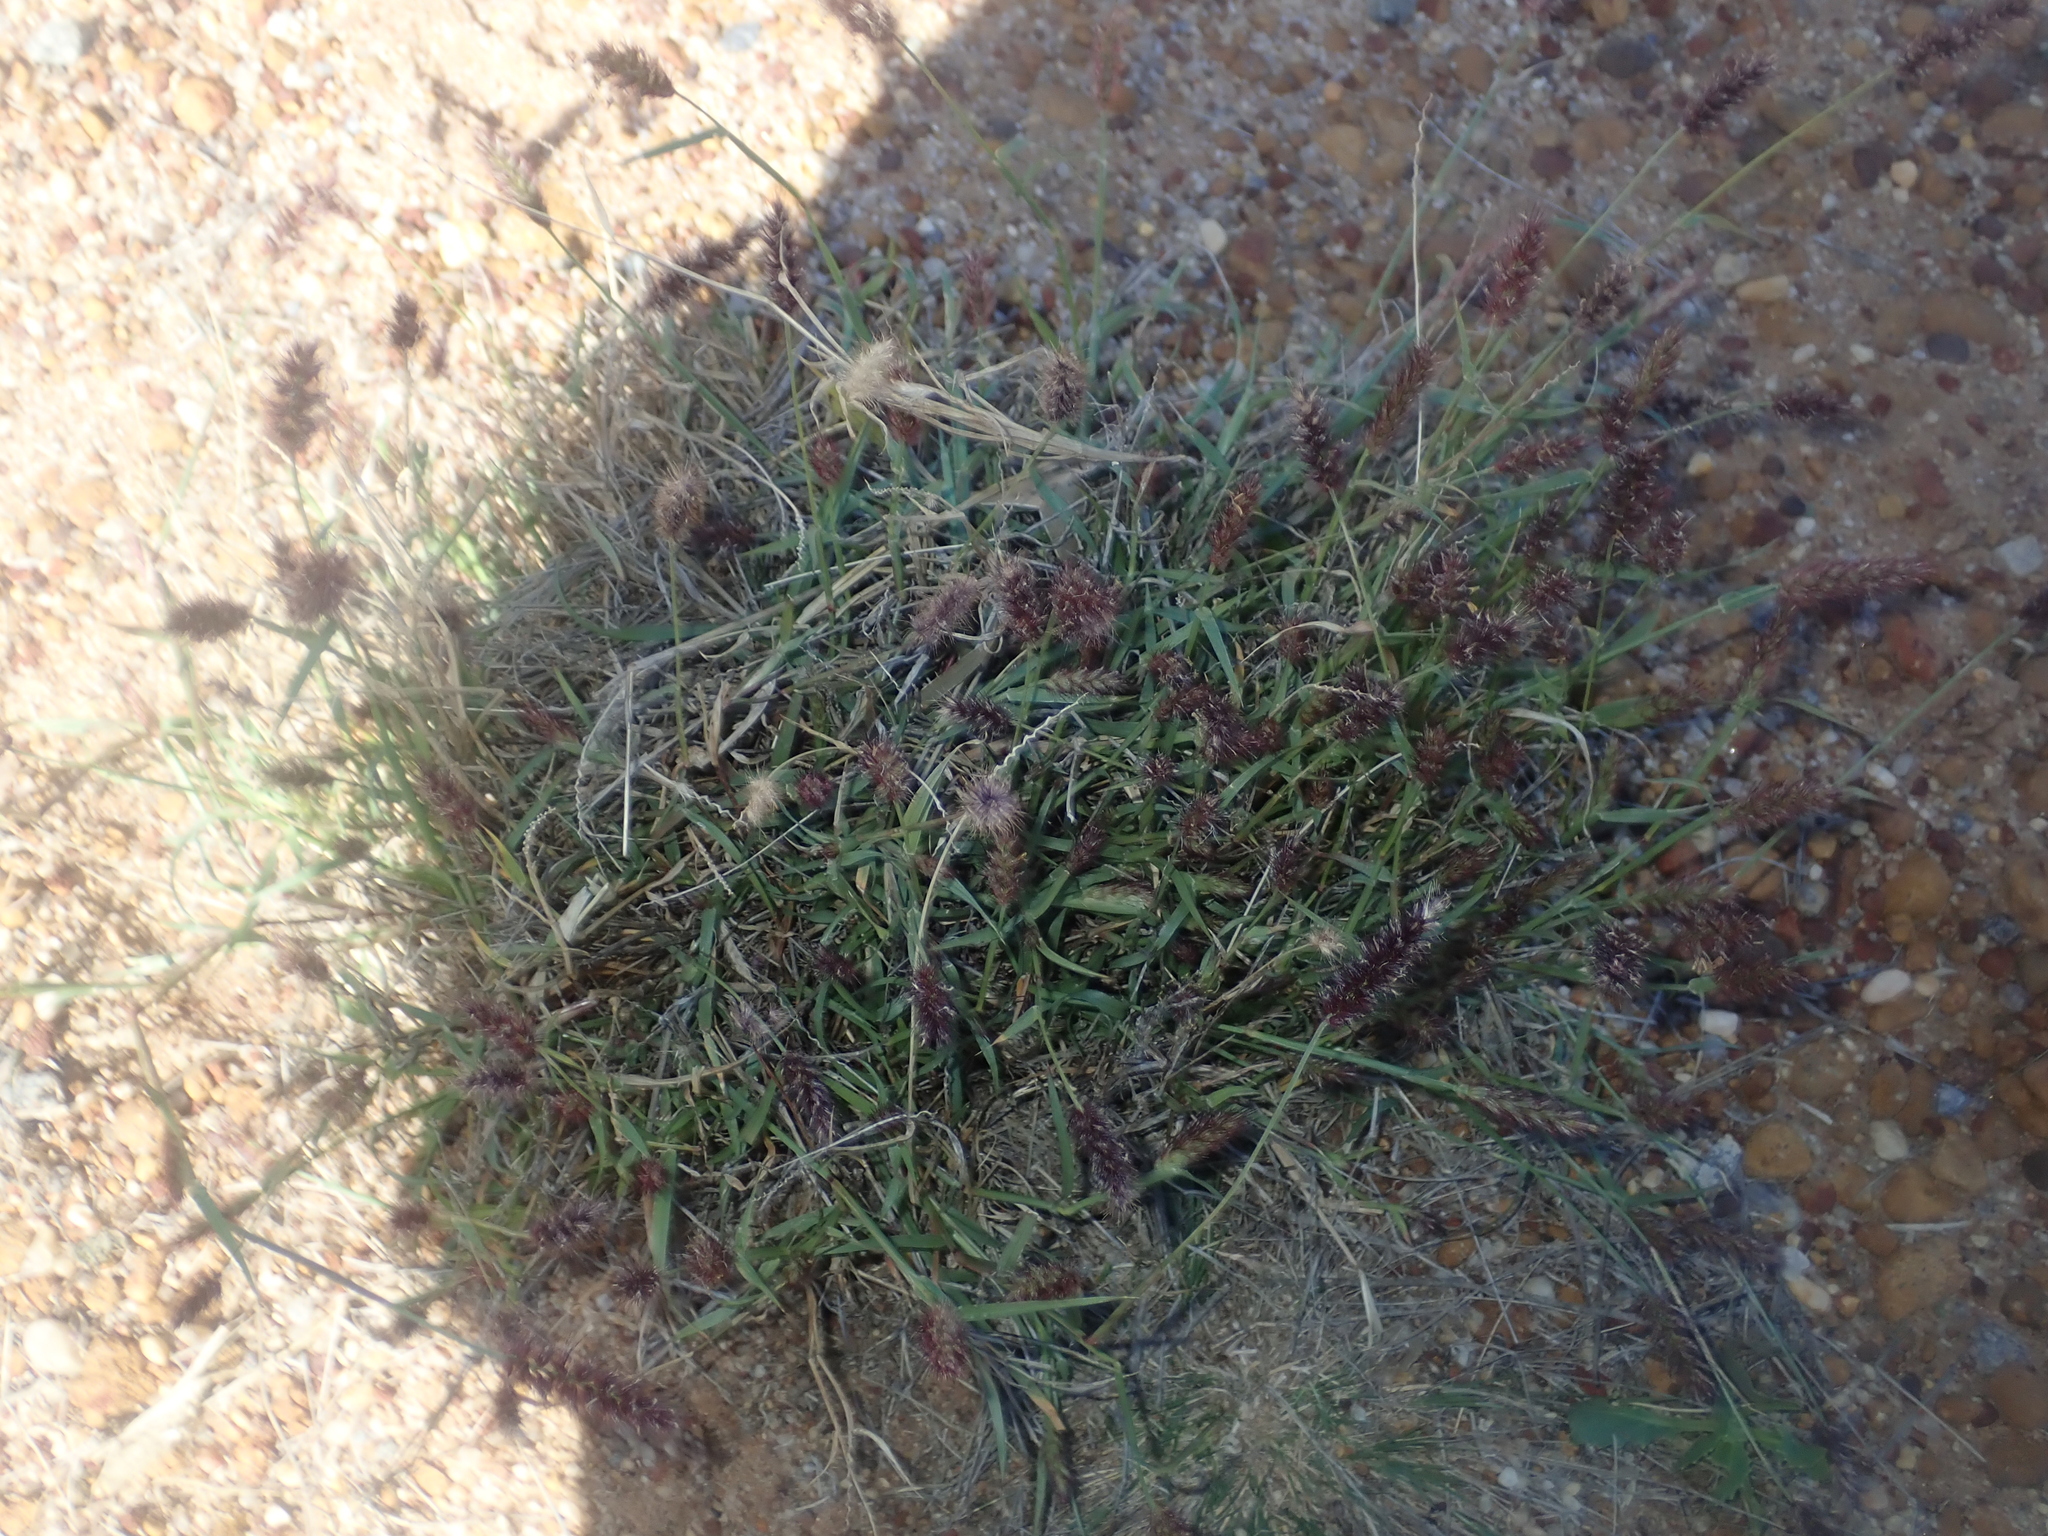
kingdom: Plantae
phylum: Tracheophyta
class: Liliopsida
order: Poales
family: Poaceae
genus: Cenchrus
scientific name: Cenchrus ciliaris
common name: Buffelgrass
